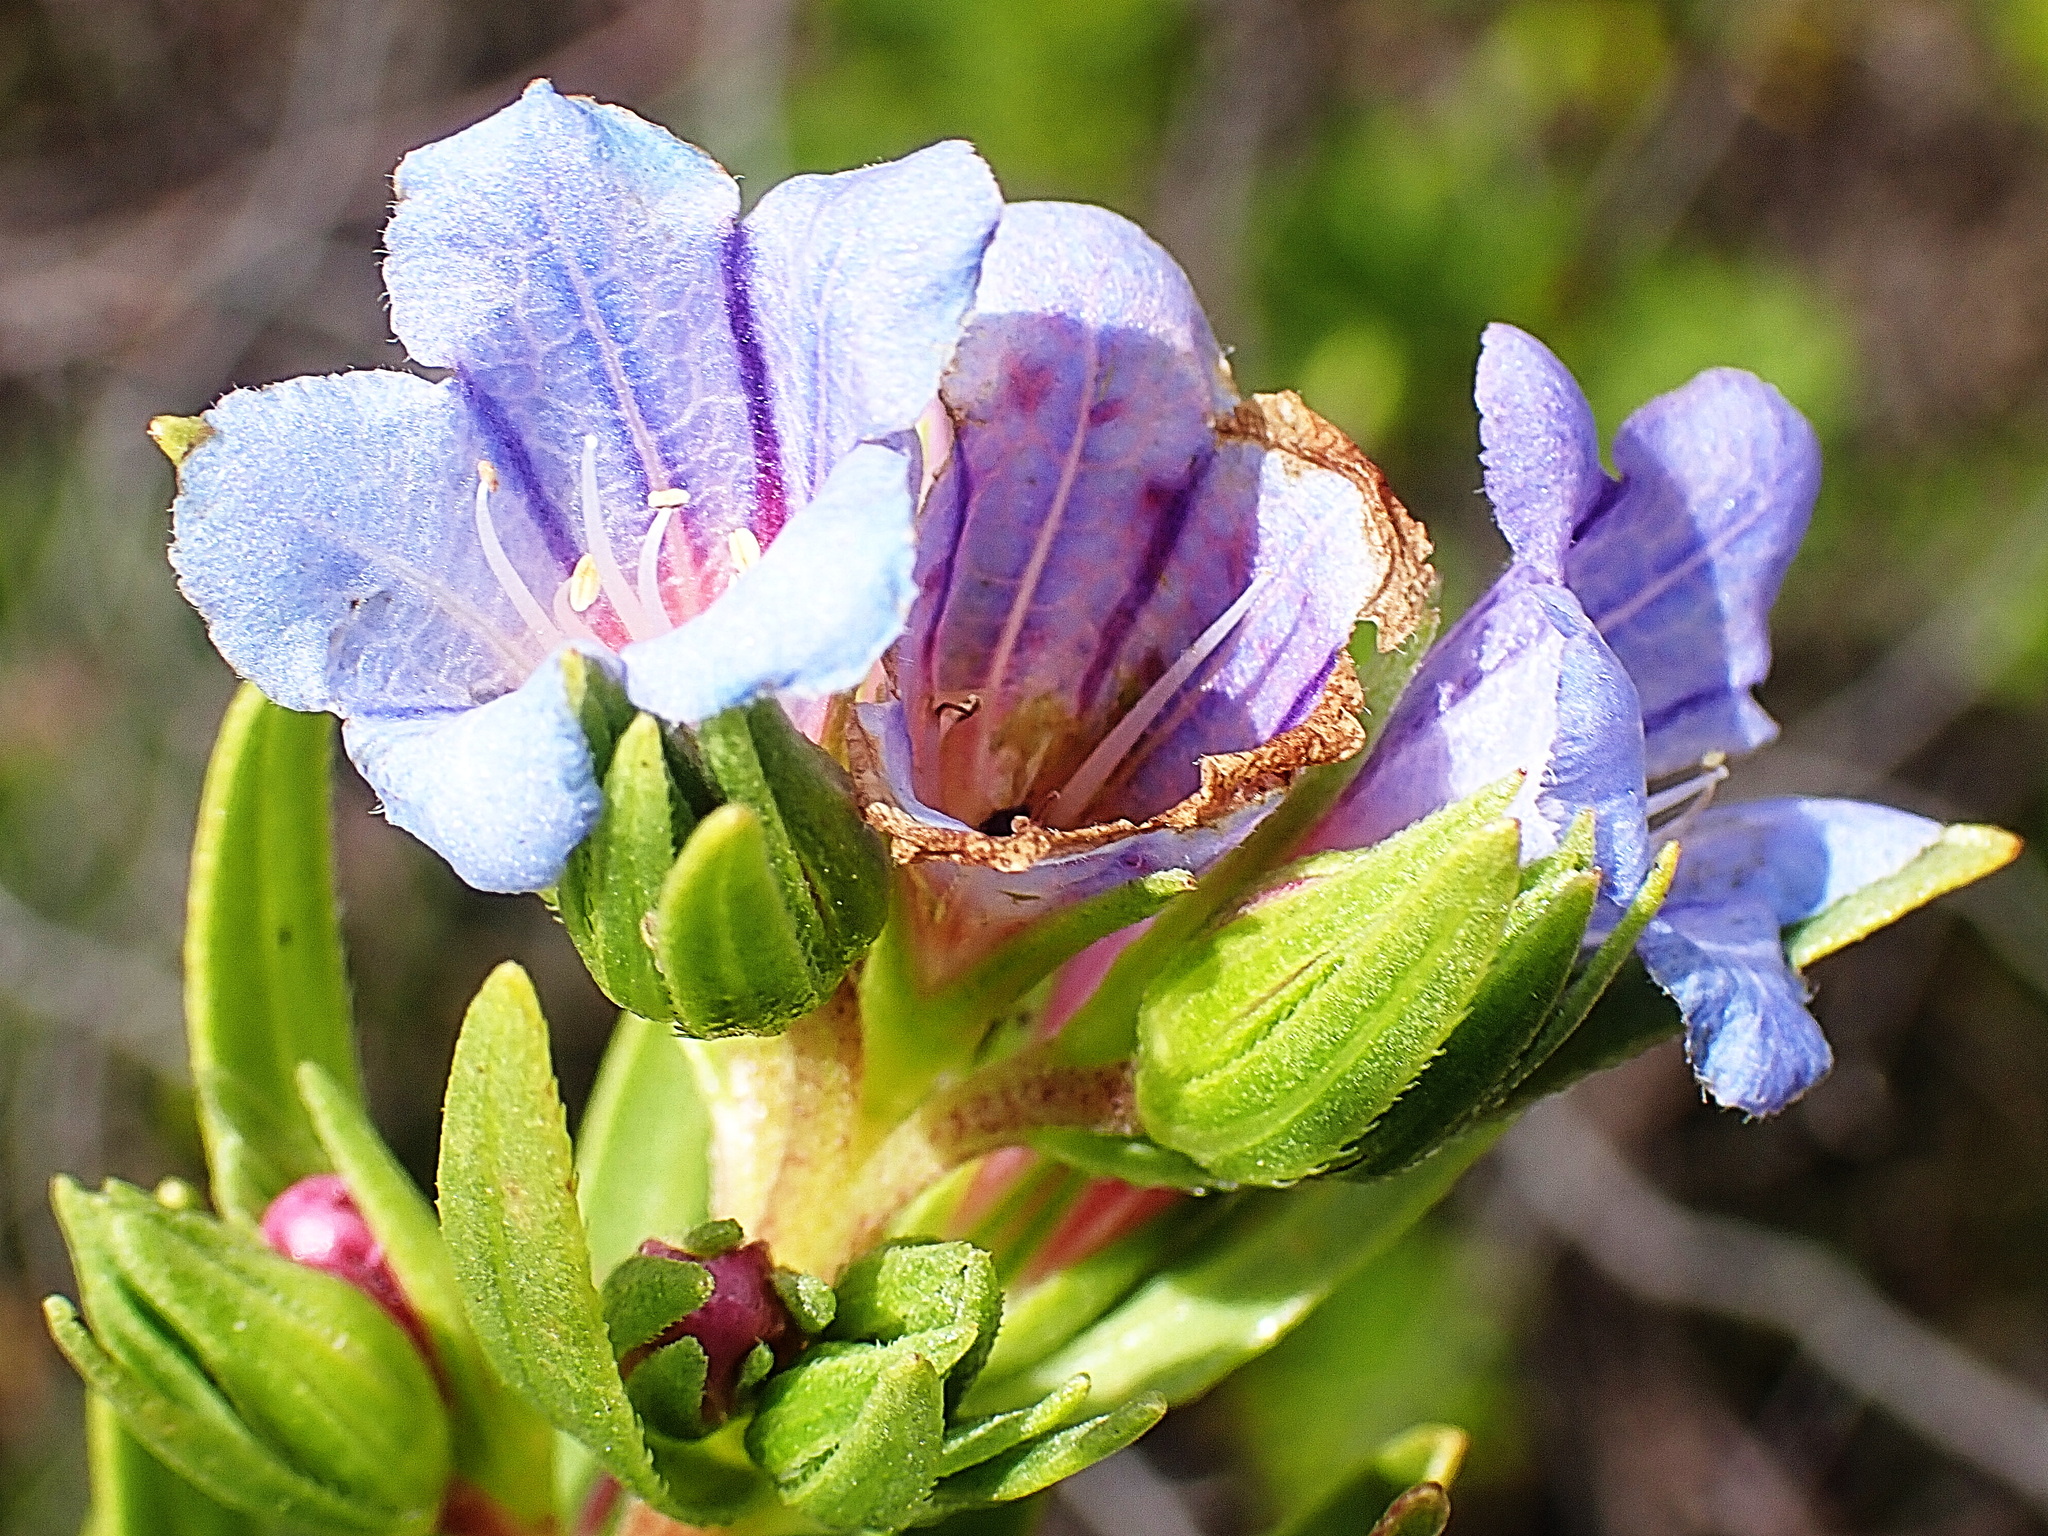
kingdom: Plantae
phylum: Tracheophyta
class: Magnoliopsida
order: Boraginales
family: Boraginaceae
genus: Lobostemon
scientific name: Lobostemon fruticosus
